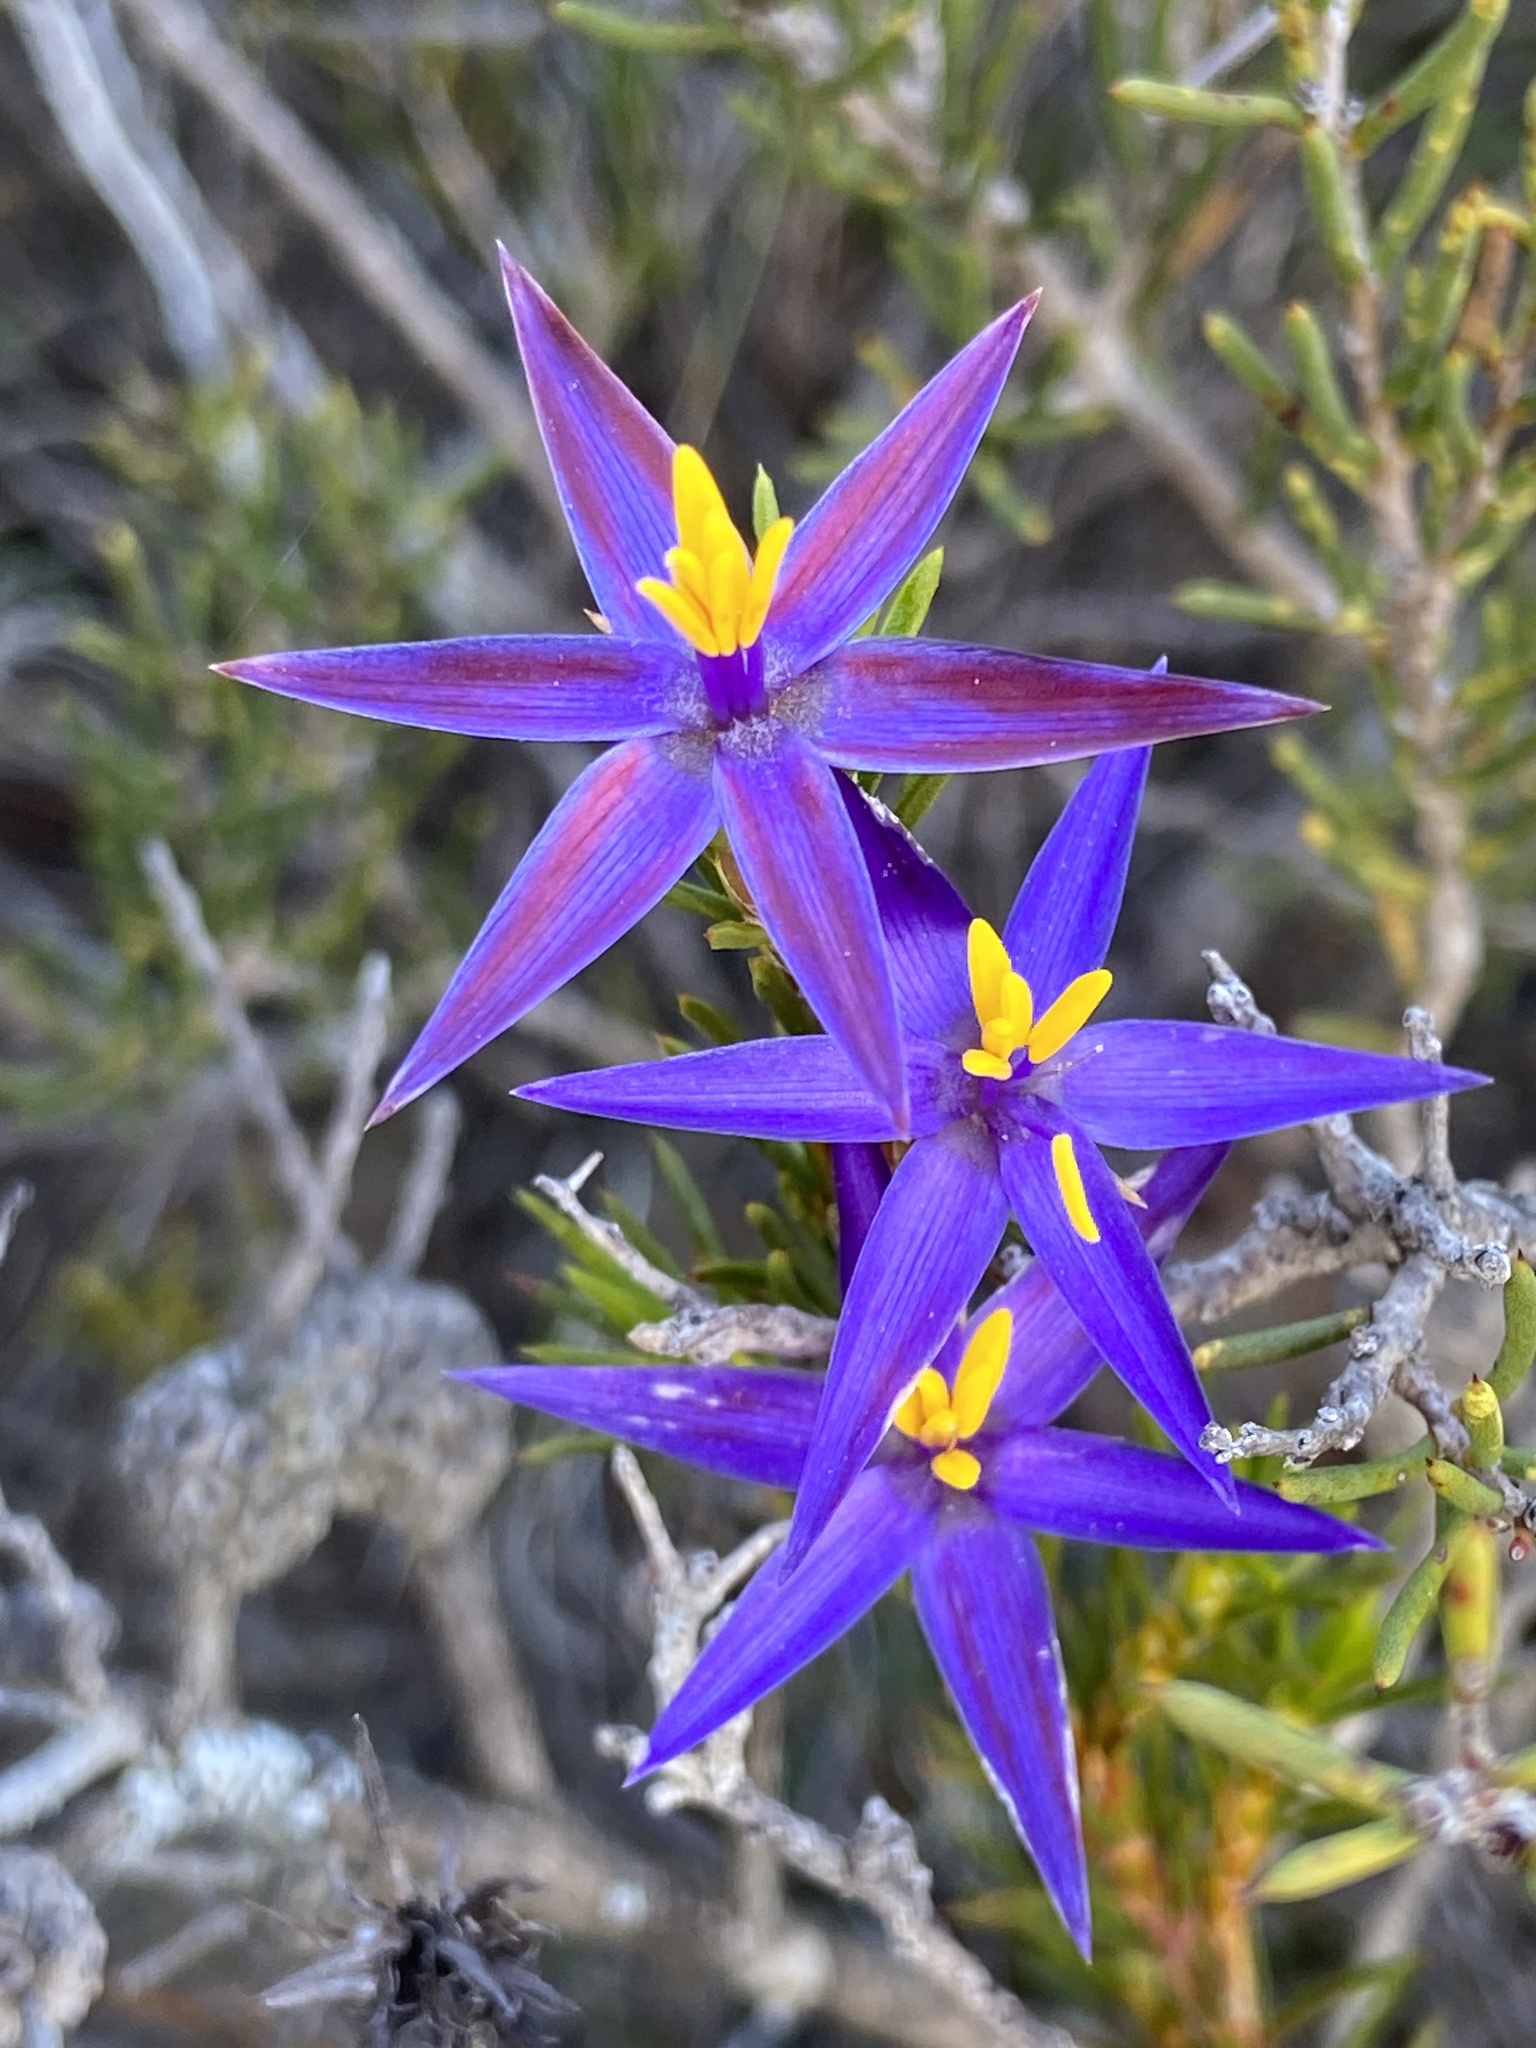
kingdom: Plantae
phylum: Tracheophyta
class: Liliopsida
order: Arecales
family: Dasypogonaceae
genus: Calectasia
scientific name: Calectasia demarzii
